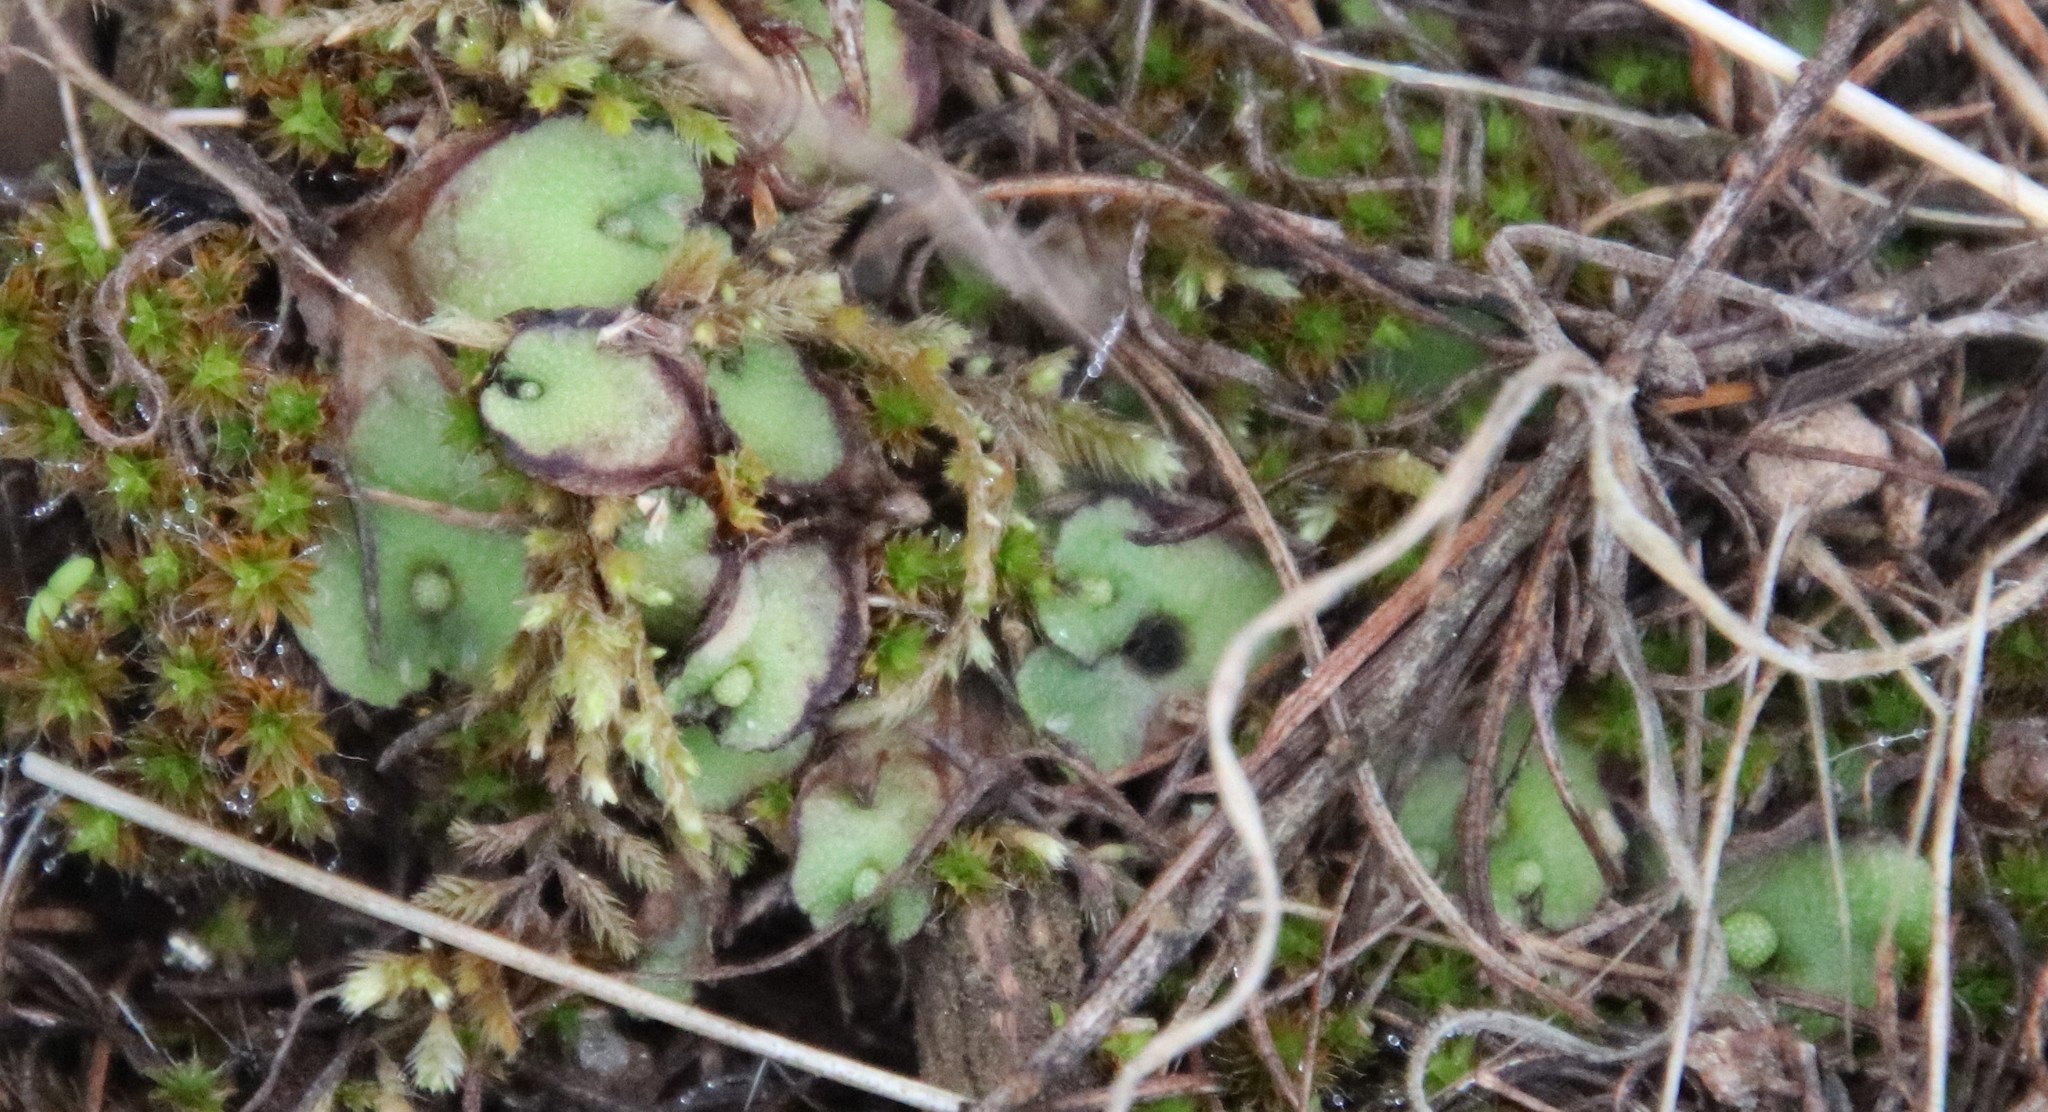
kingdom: Plantae
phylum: Marchantiophyta
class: Marchantiopsida
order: Marchantiales
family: Aytoniaceae
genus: Asterella
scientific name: Asterella californica
